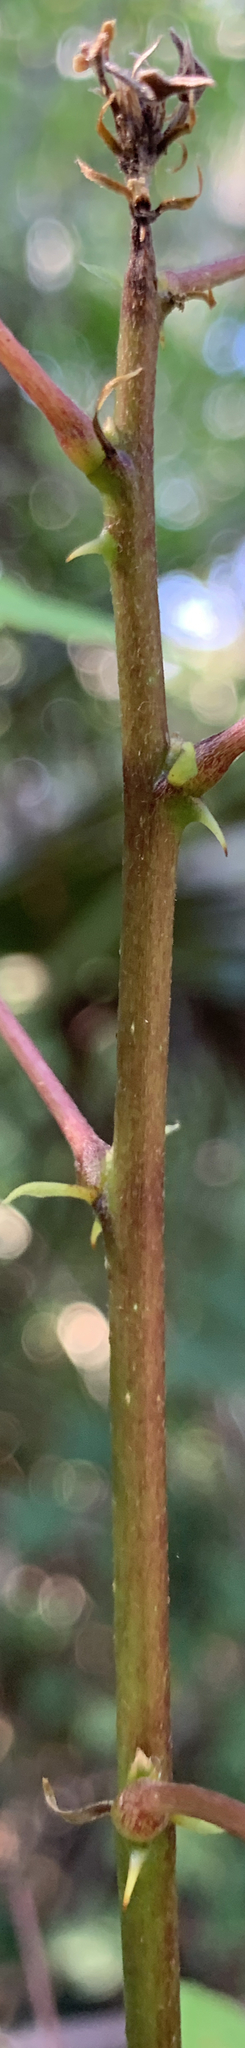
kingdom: Plantae
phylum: Tracheophyta
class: Magnoliopsida
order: Fabales
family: Fabaceae
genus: Erythrina
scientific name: Erythrina herbacea
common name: Coral-bean
